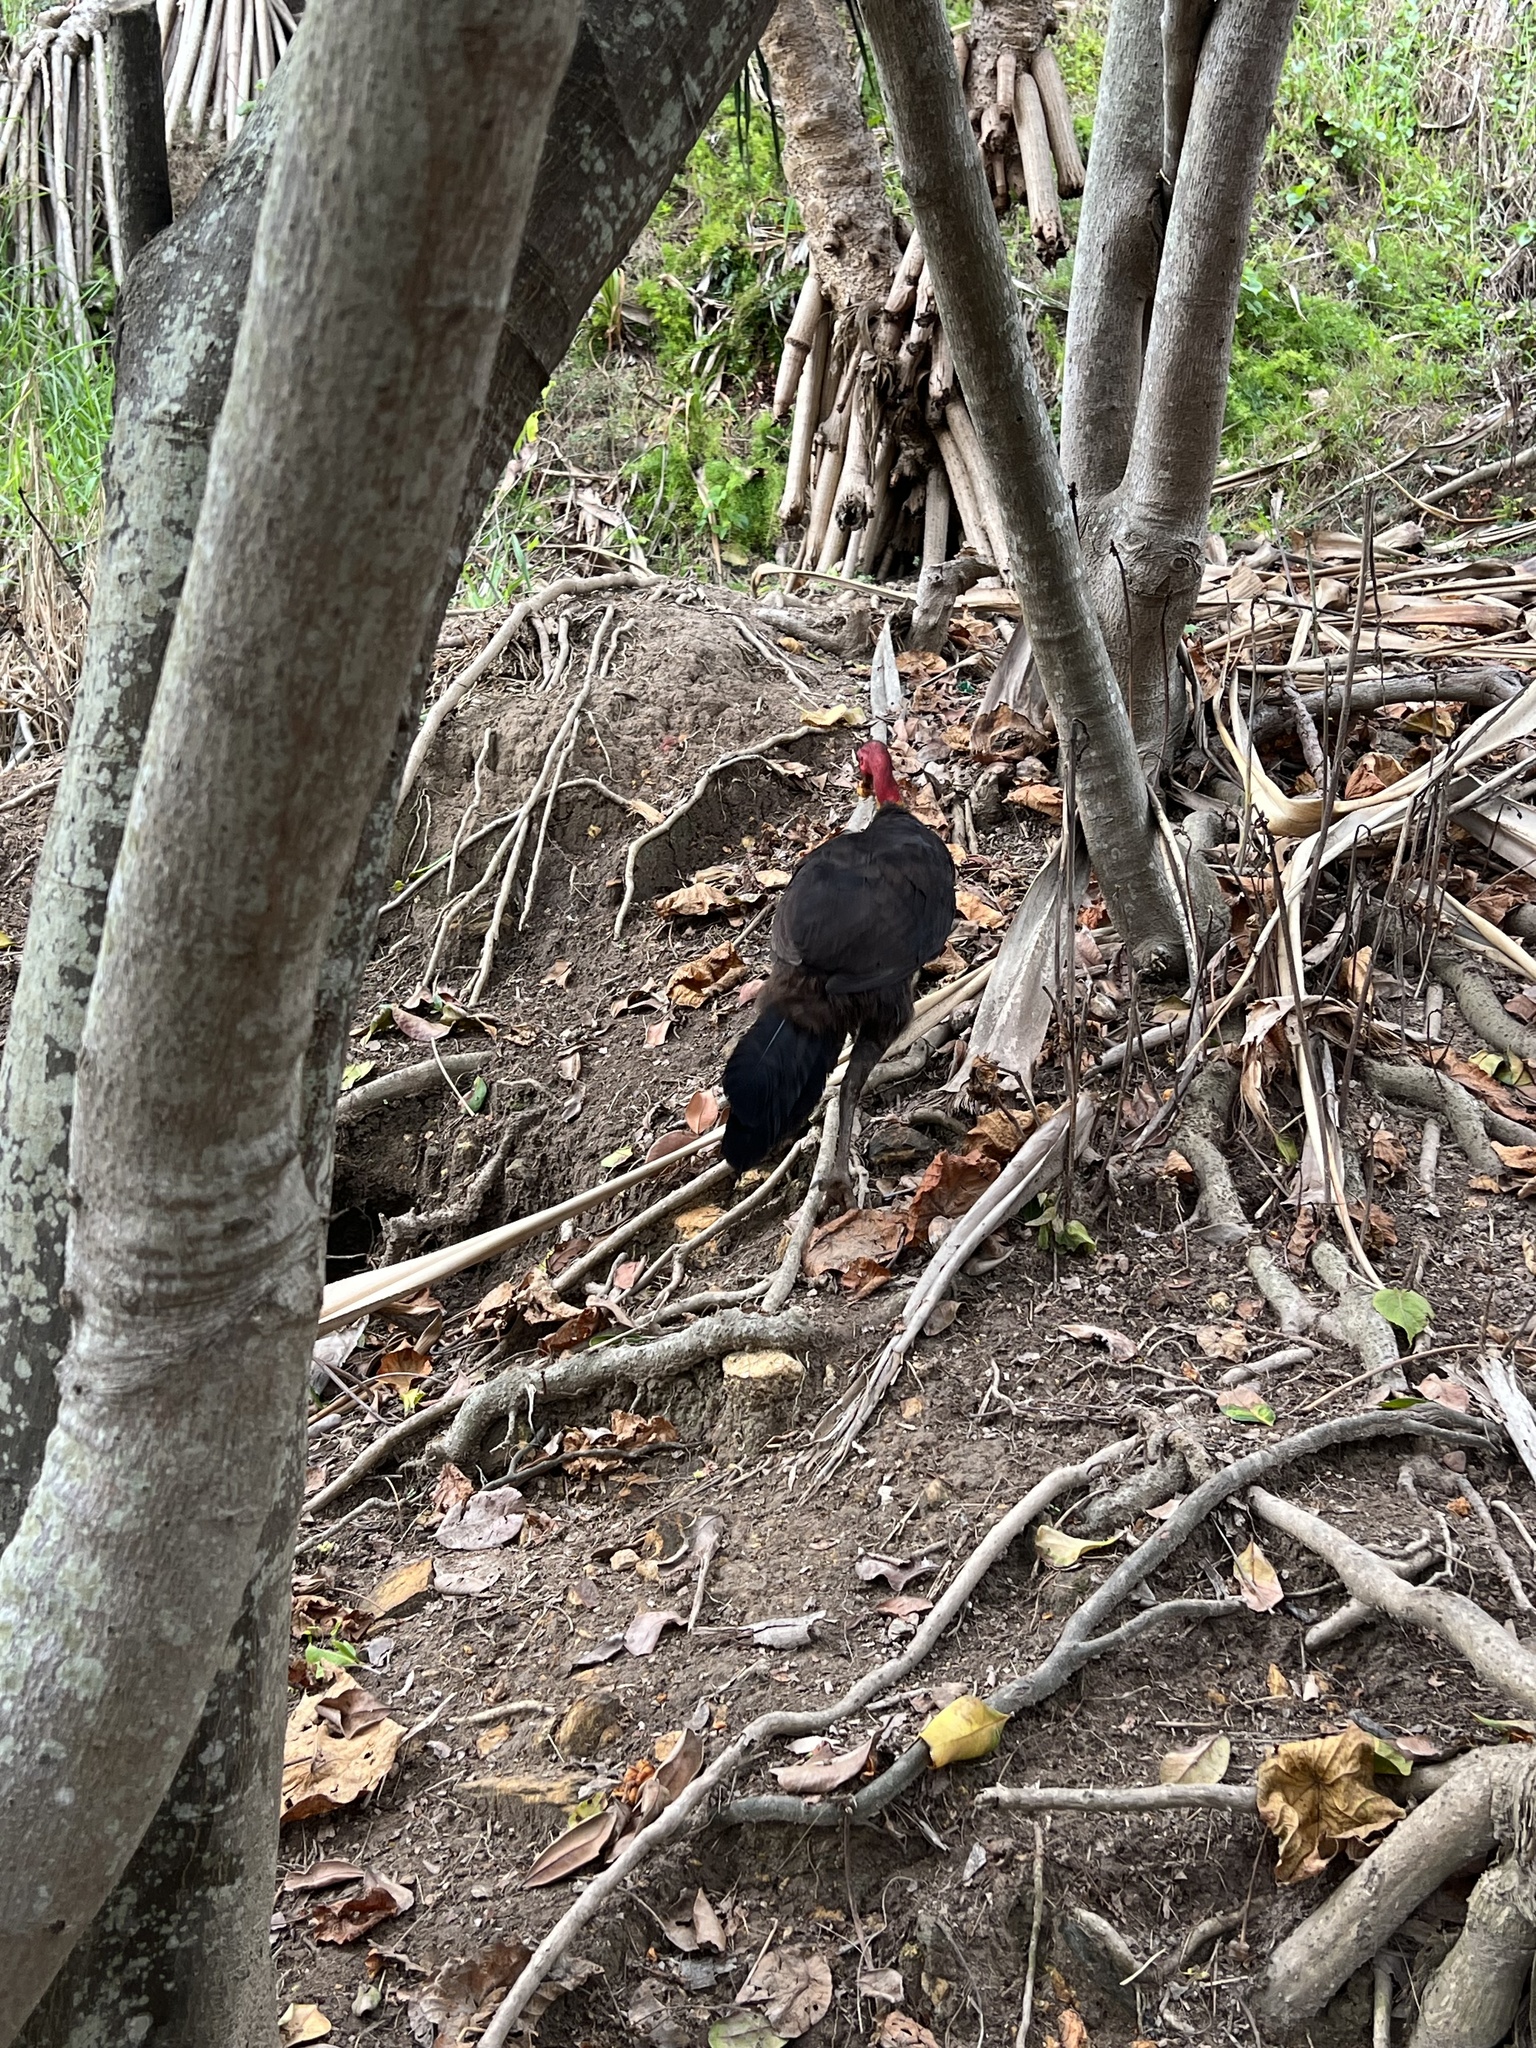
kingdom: Animalia
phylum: Chordata
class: Aves
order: Galliformes
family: Megapodiidae
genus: Alectura
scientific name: Alectura lathami
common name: Australian brushturkey
